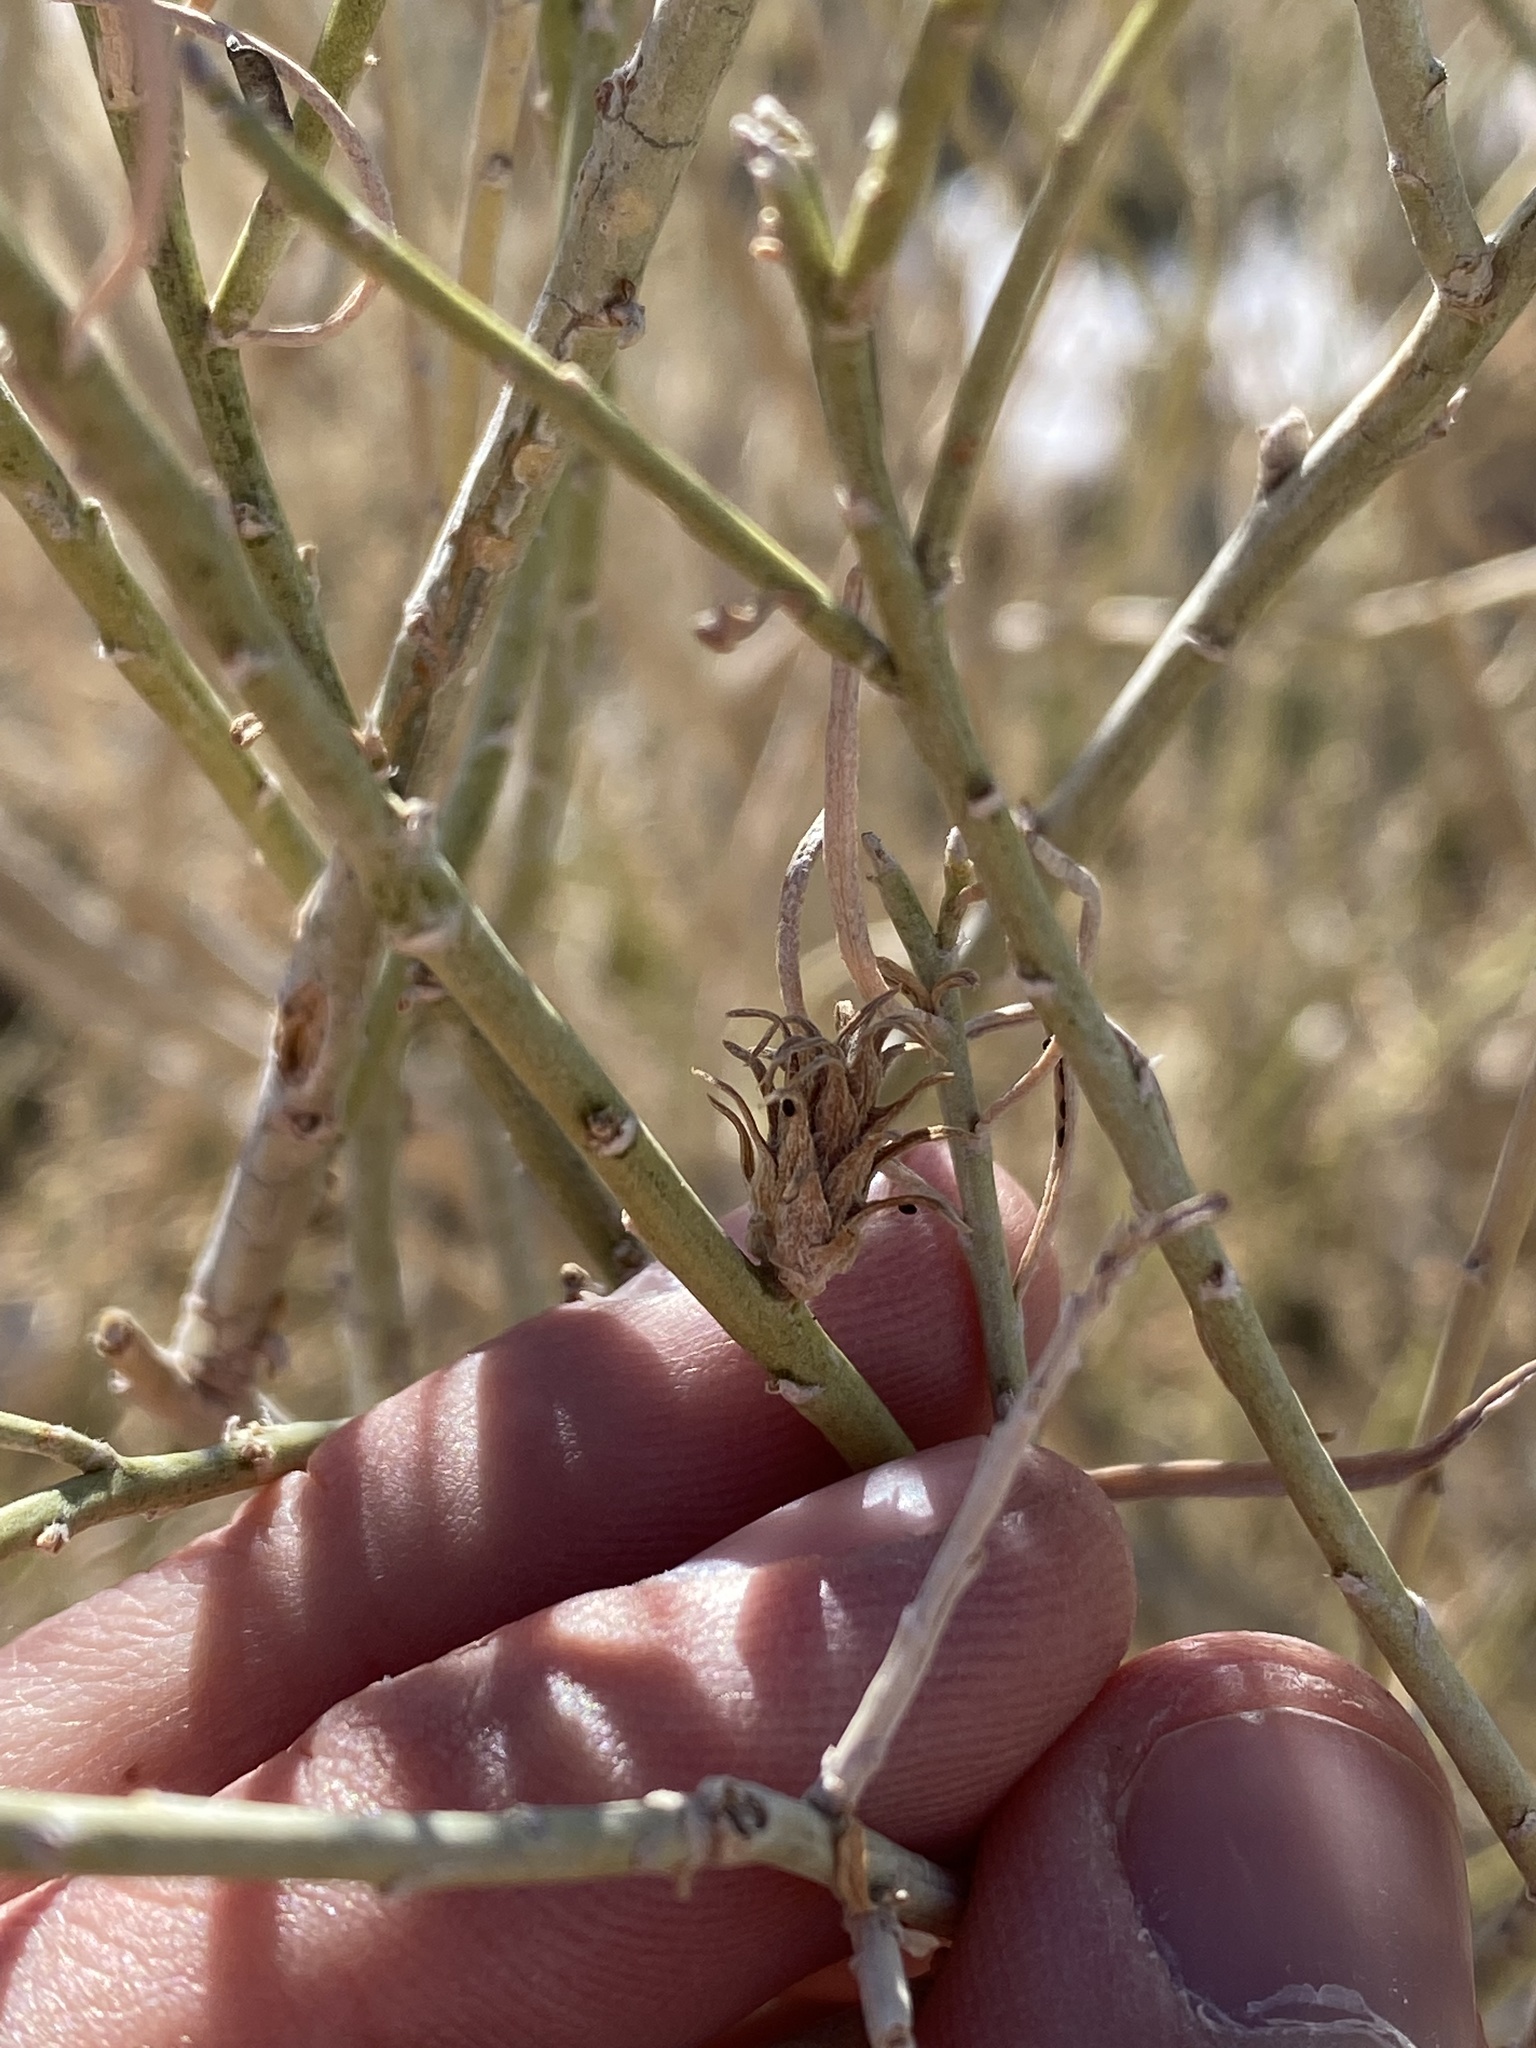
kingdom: Animalia
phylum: Arthropoda
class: Insecta
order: Diptera
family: Cecidomyiidae
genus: Rhopalomyia
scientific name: Rhopalomyia ericameriae
